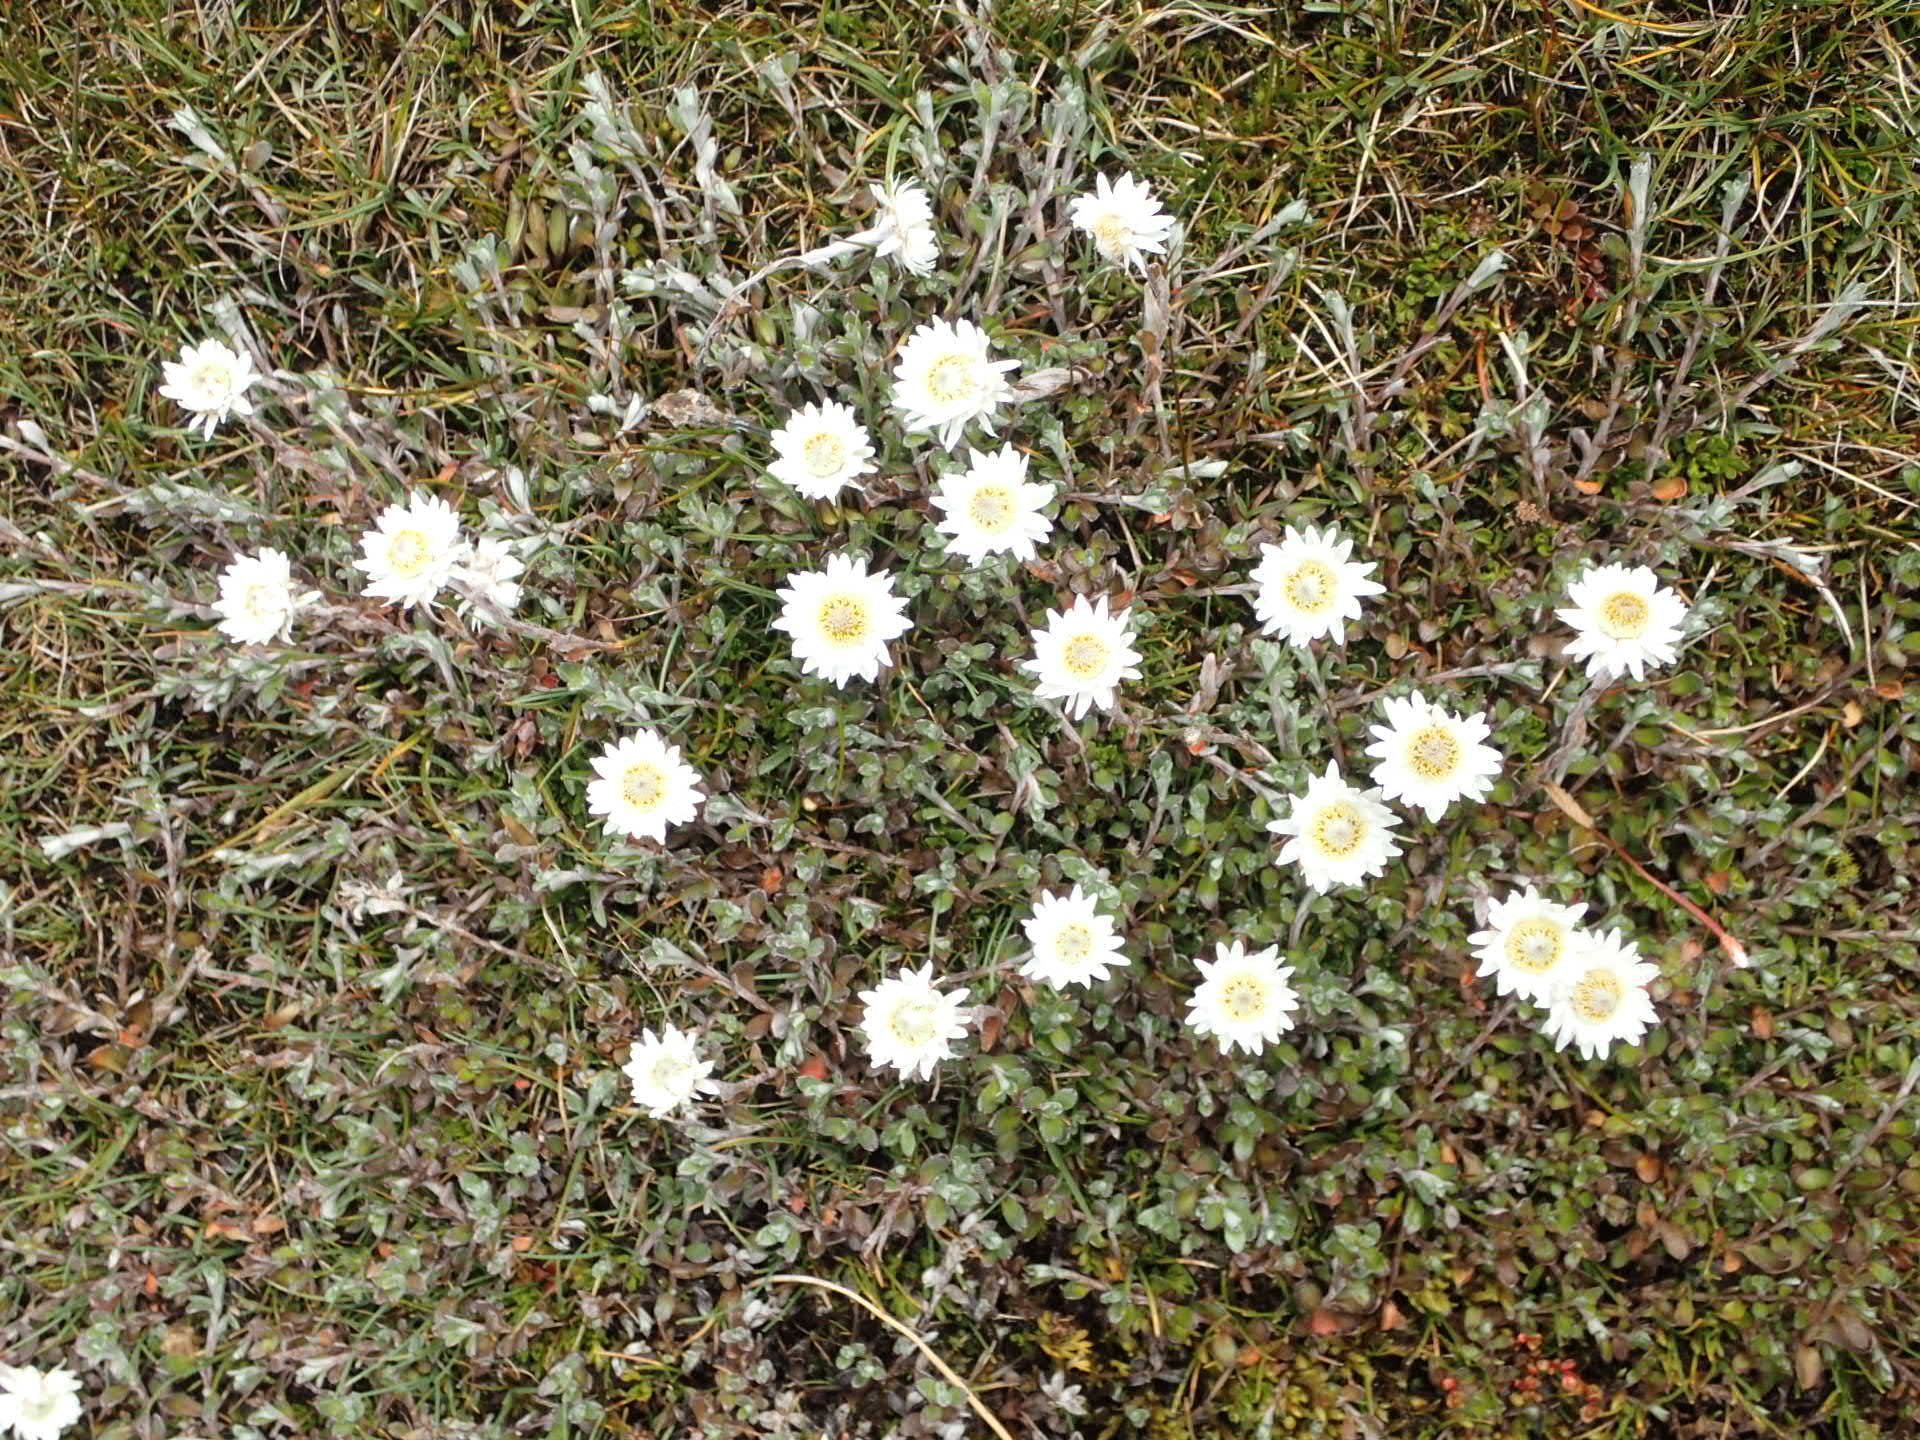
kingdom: Plantae
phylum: Tracheophyta
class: Magnoliopsida
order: Asterales
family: Asteraceae
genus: Anaphalioides
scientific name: Anaphalioides bellidioides
